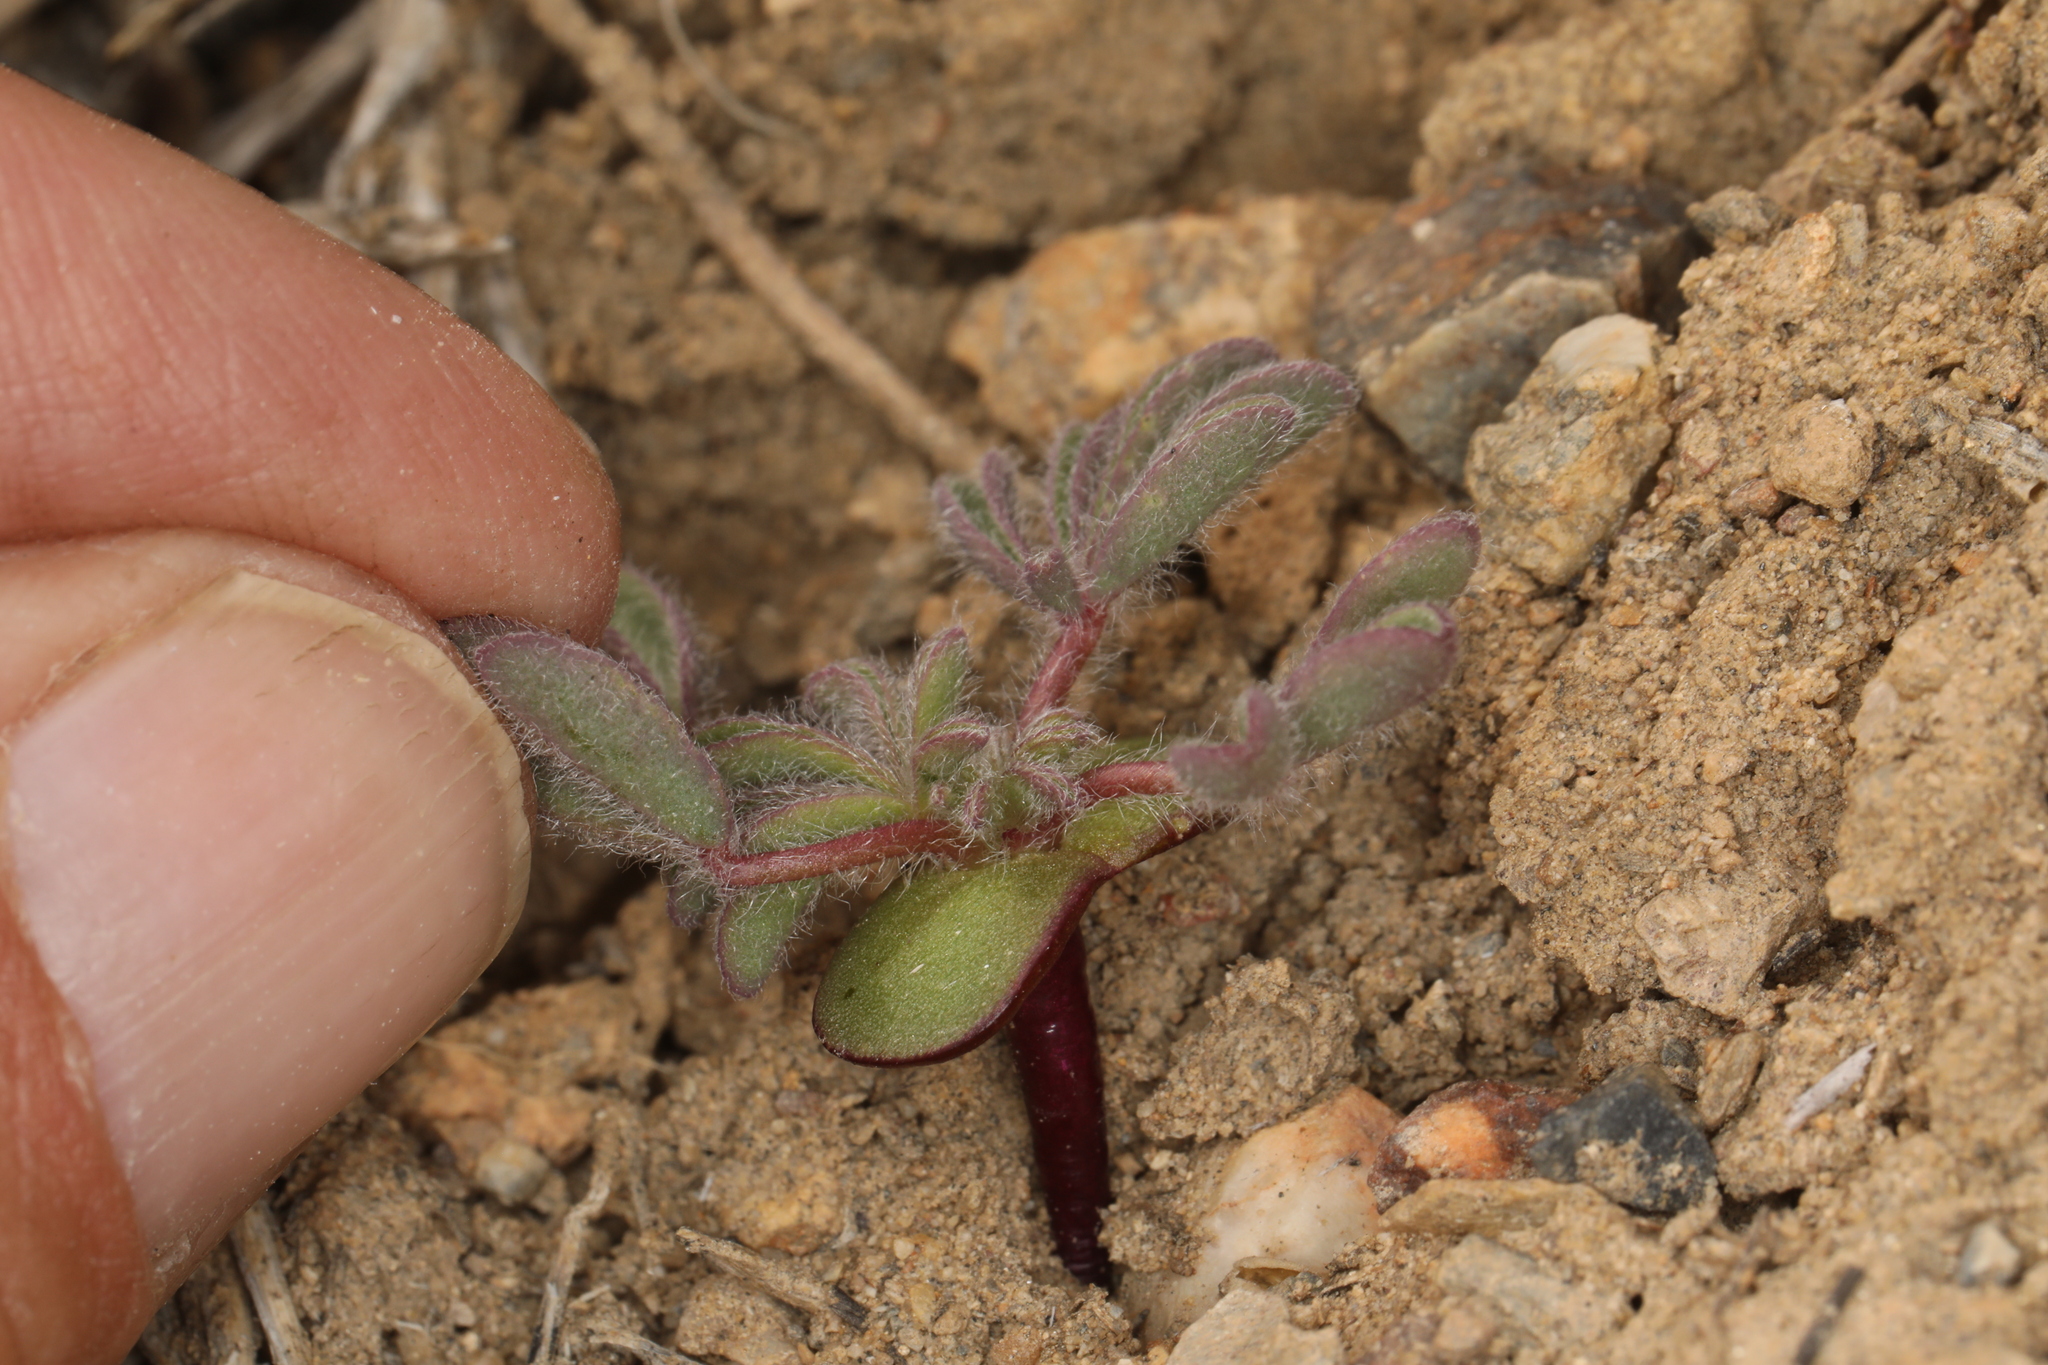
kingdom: Plantae
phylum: Tracheophyta
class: Magnoliopsida
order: Fabales
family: Fabaceae
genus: Lupinus
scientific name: Lupinus brevicaulis
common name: Sand lupine
